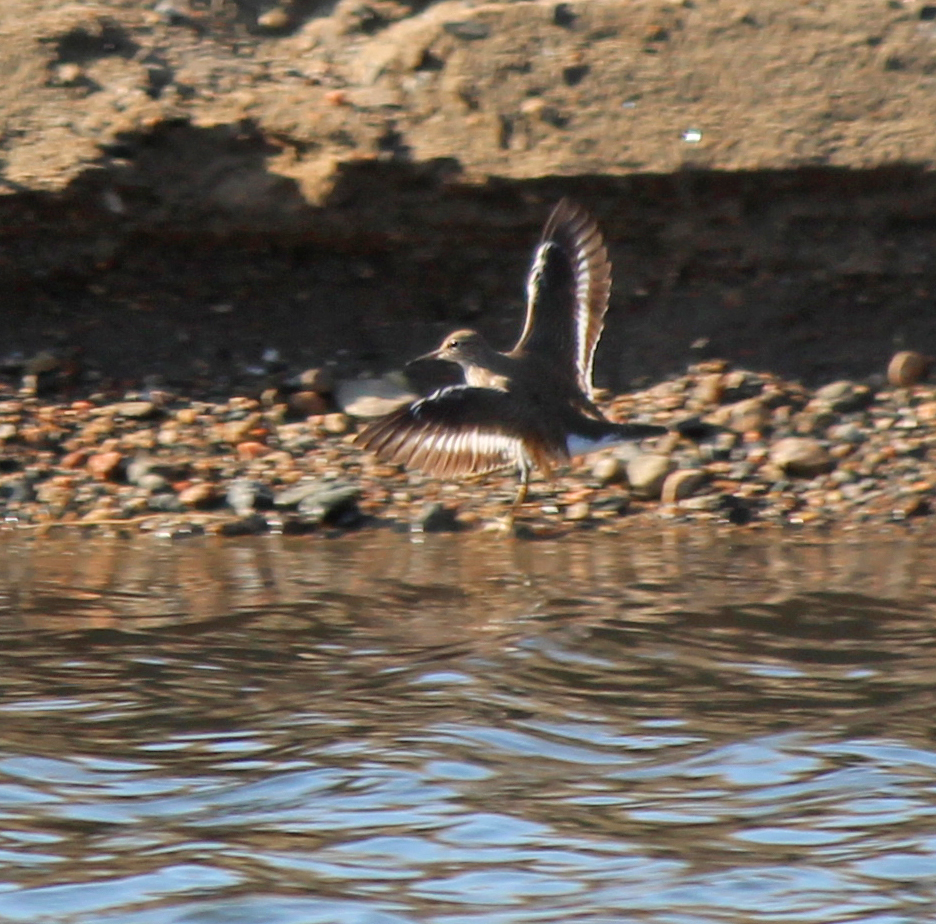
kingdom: Animalia
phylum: Chordata
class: Aves
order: Charadriiformes
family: Scolopacidae
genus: Actitis
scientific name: Actitis hypoleucos
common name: Common sandpiper
